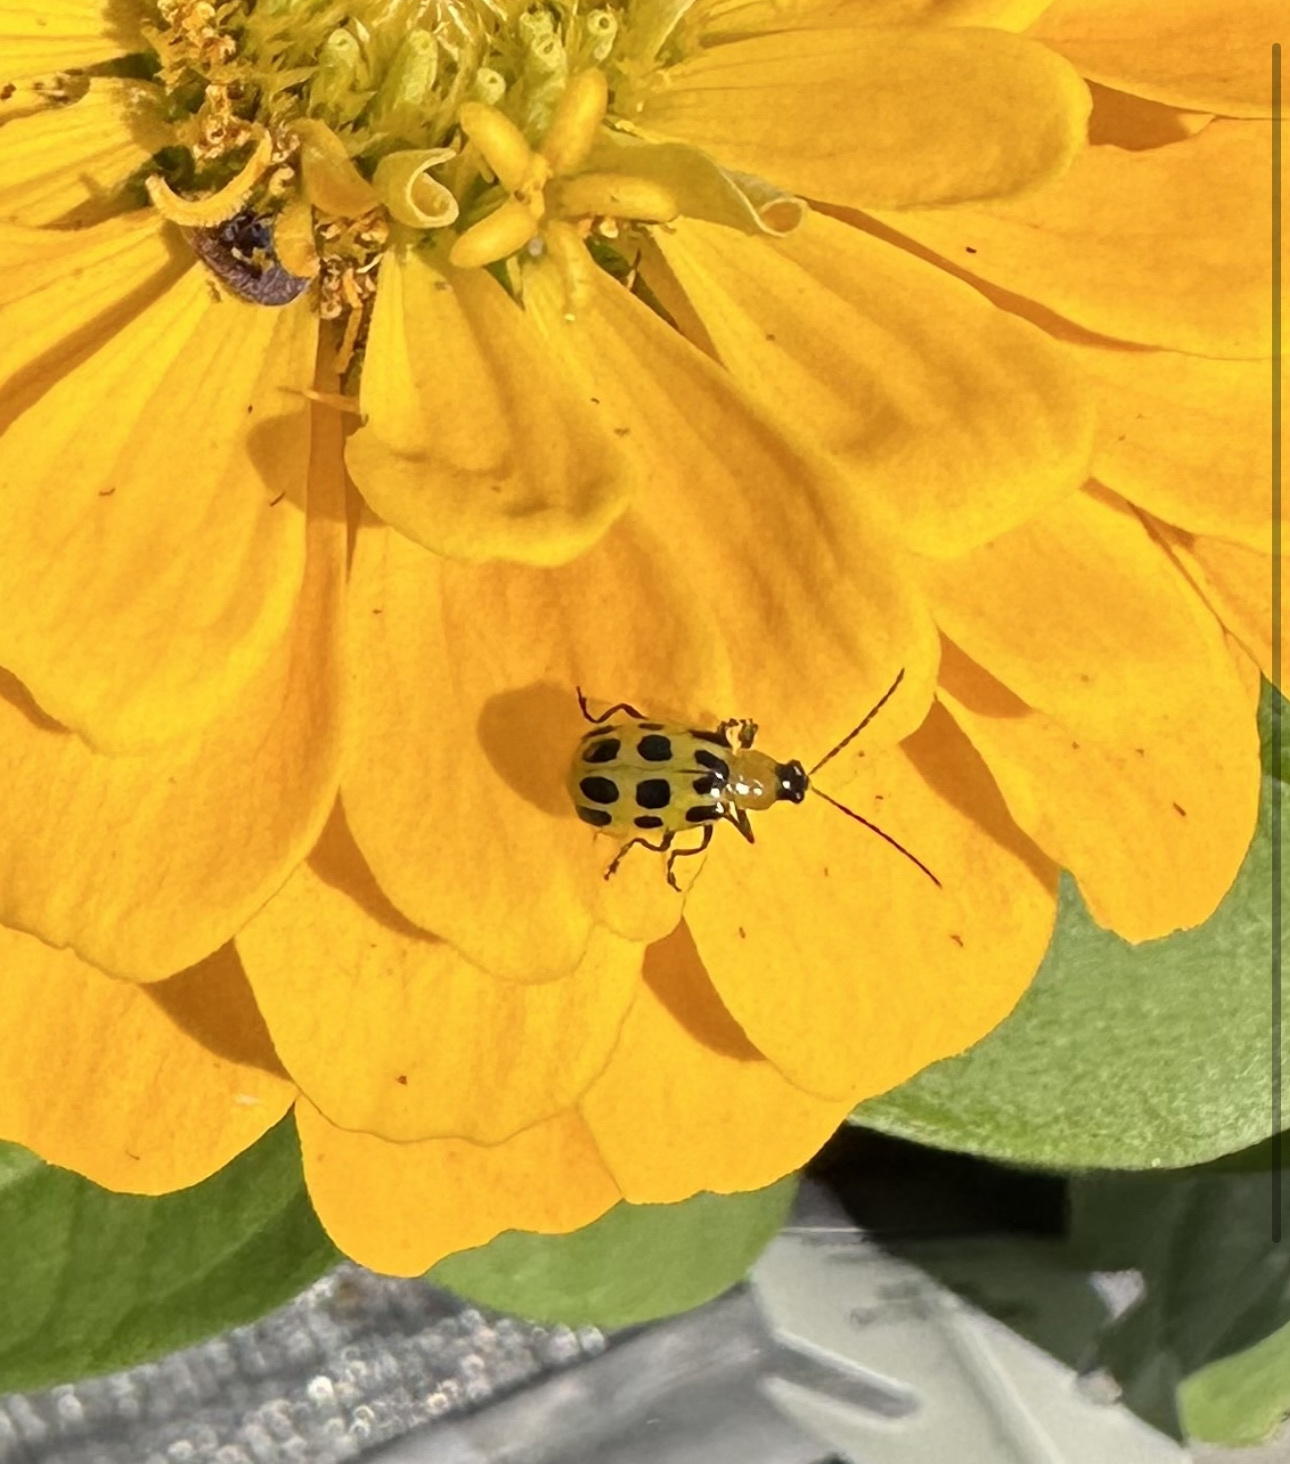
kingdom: Animalia
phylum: Arthropoda
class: Insecta
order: Coleoptera
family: Chrysomelidae
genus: Diabrotica
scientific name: Diabrotica undecimpunctata
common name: Spotted cucumber beetle
